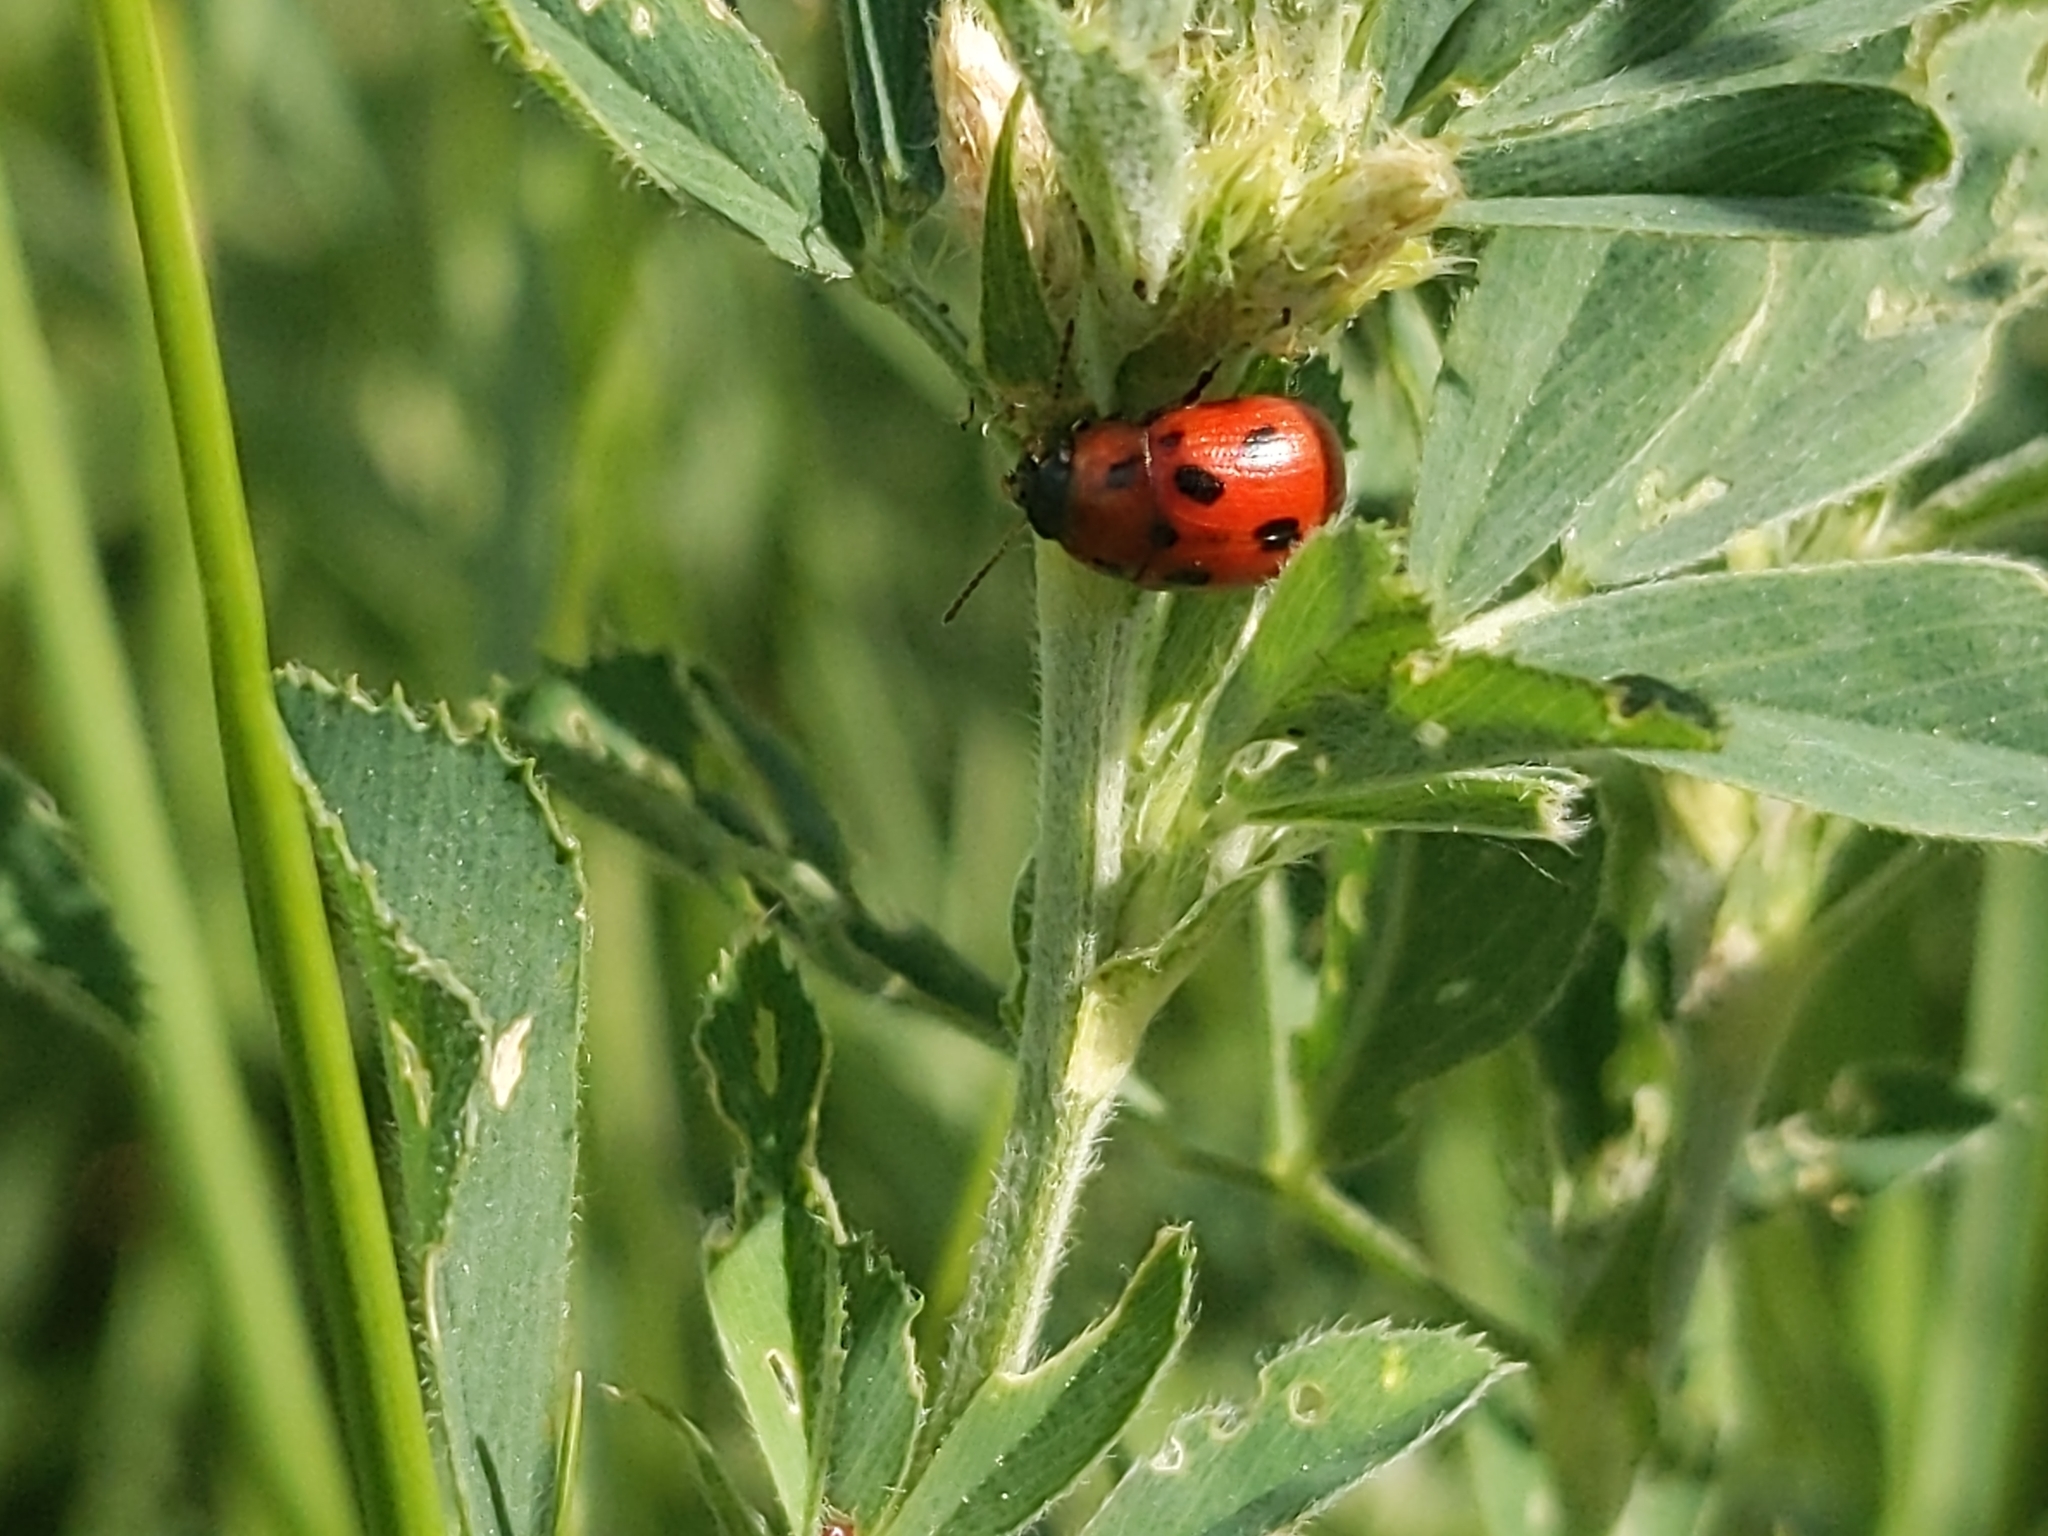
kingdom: Animalia
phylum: Arthropoda
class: Insecta
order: Coleoptera
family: Chrysomelidae
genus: Gonioctena
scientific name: Gonioctena fornicata
